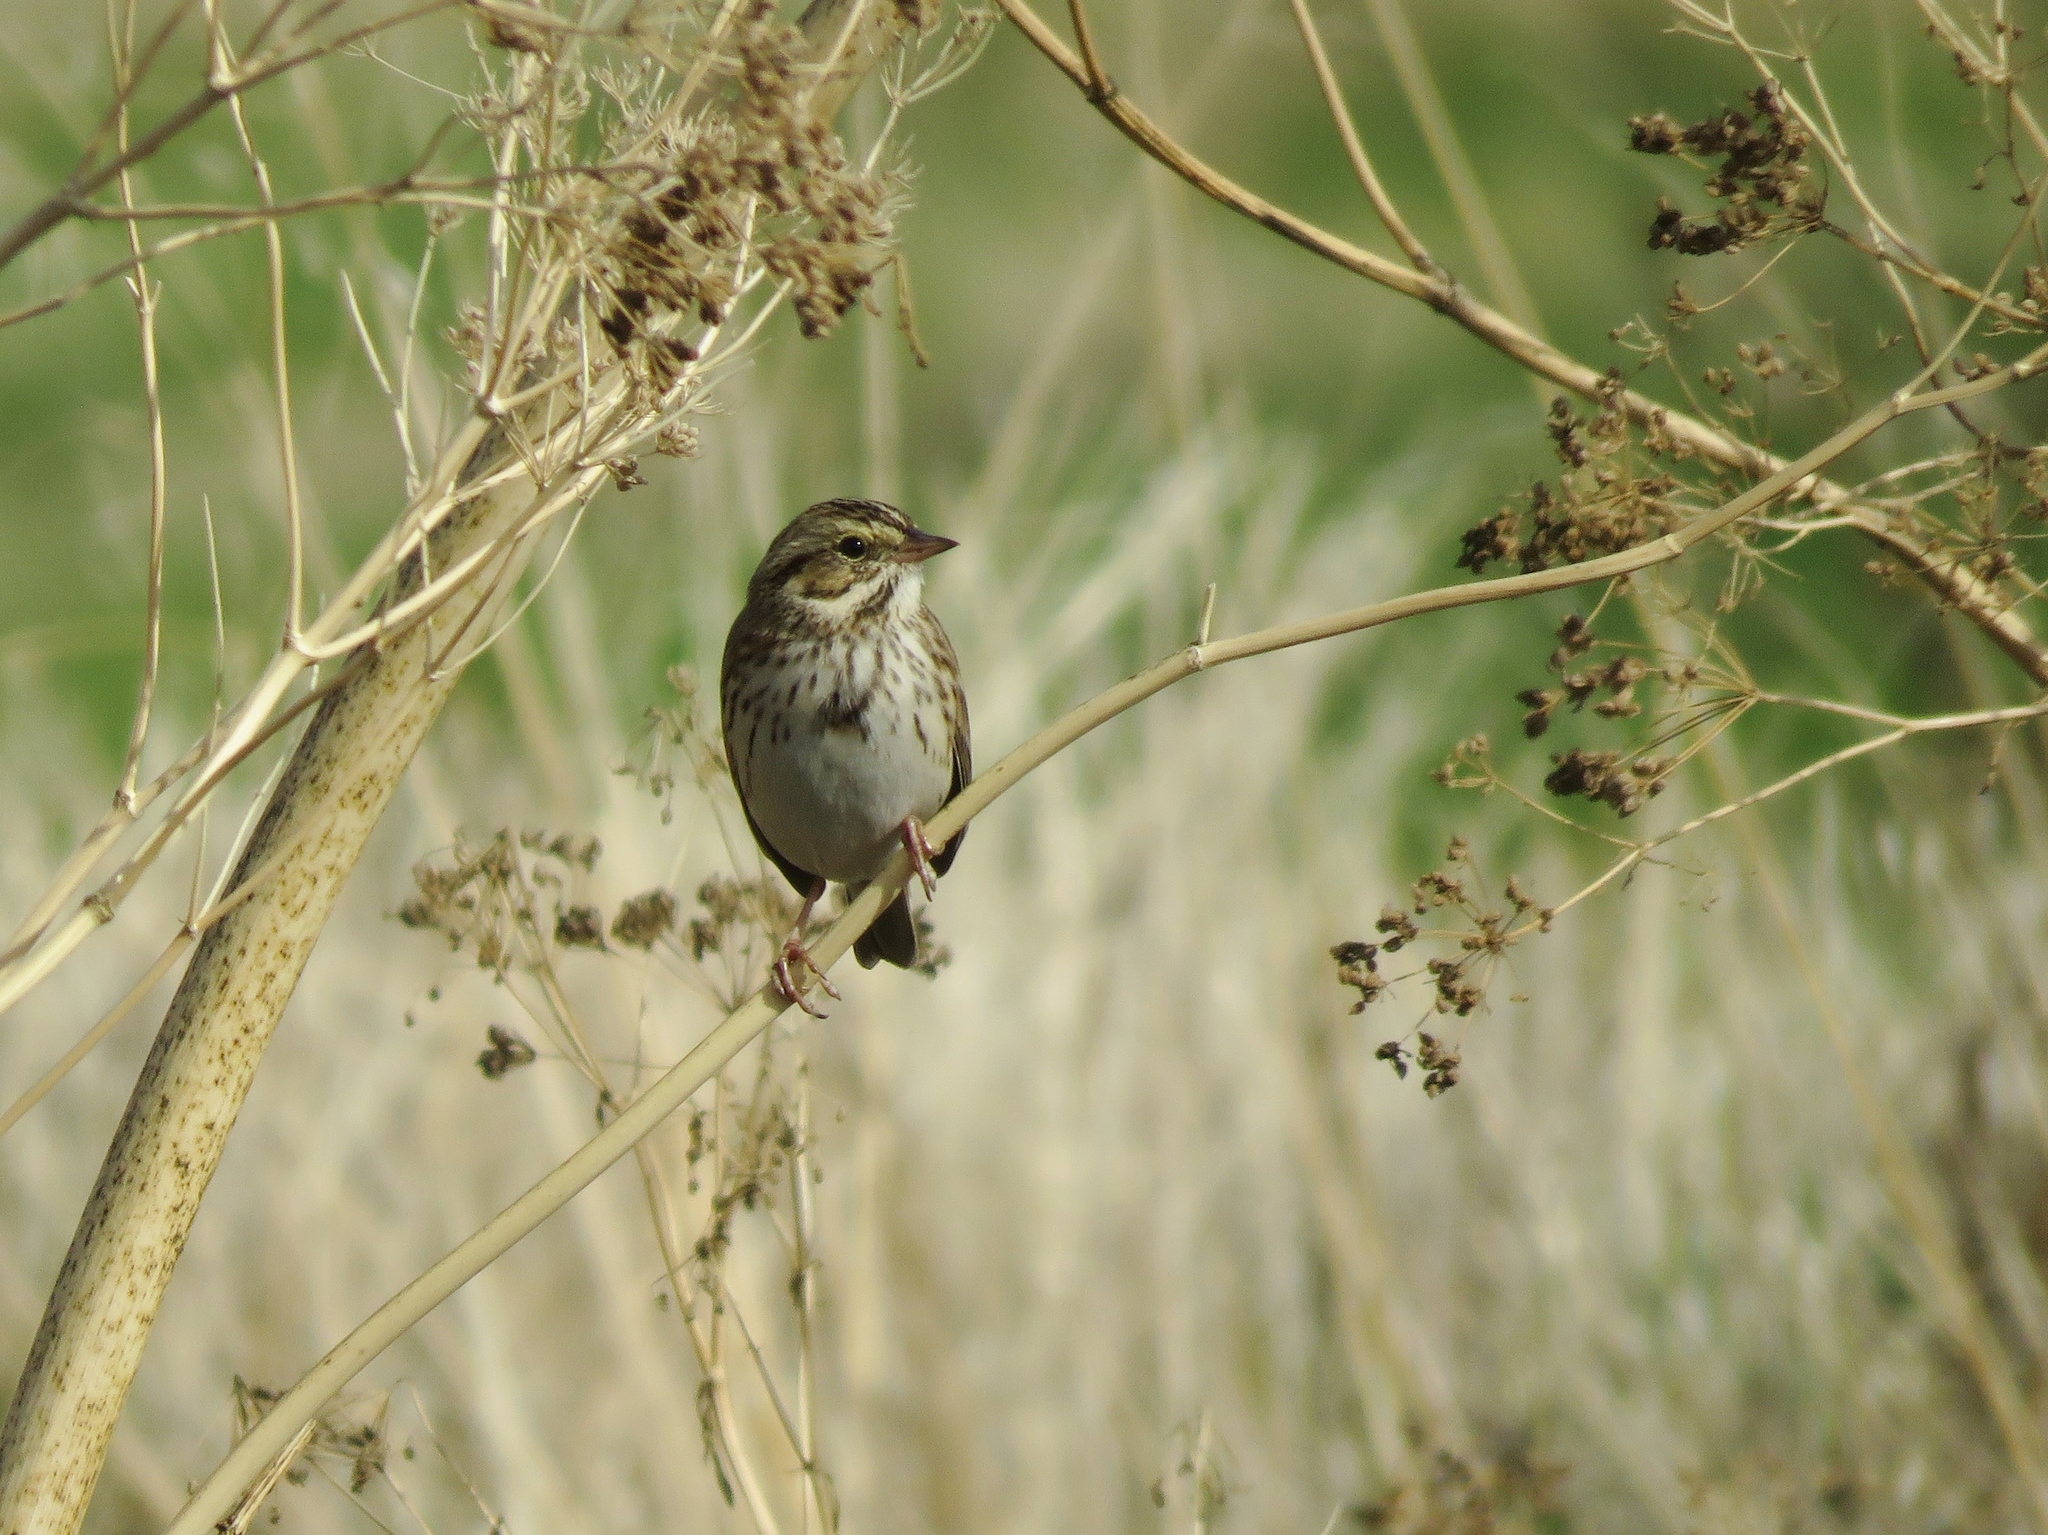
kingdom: Animalia
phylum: Chordata
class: Aves
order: Passeriformes
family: Passerellidae
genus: Passerculus
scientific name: Passerculus sandwichensis
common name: Savannah sparrow
